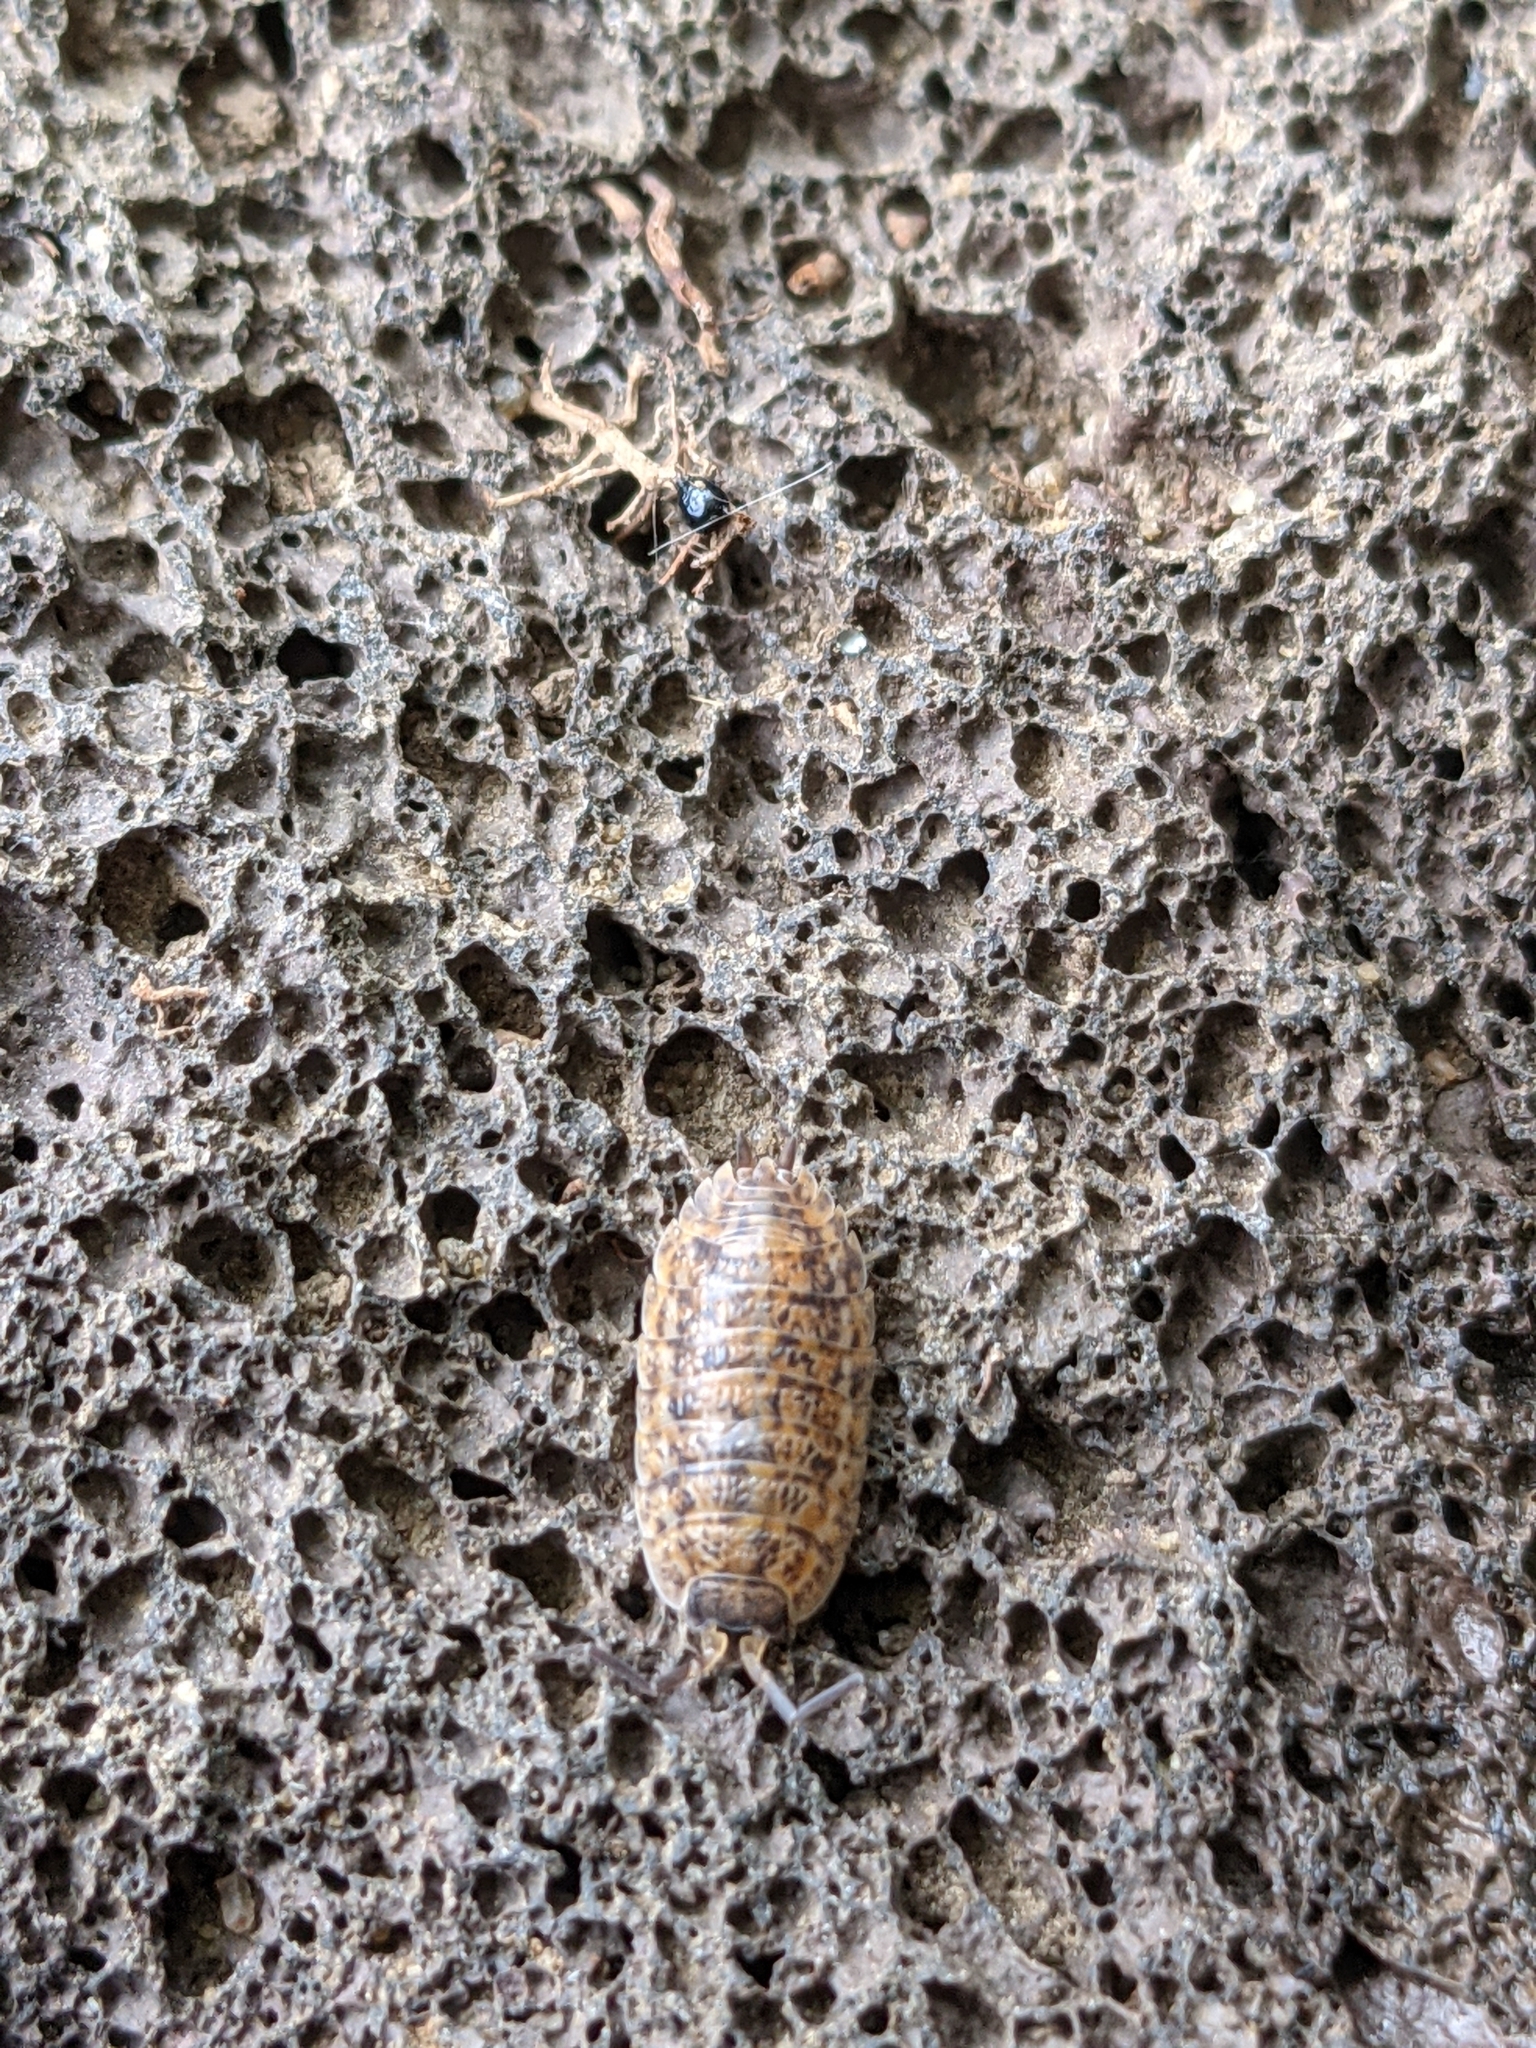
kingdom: Animalia
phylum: Arthropoda
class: Malacostraca
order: Isopoda
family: Trachelipodidae
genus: Trachelipus
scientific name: Trachelipus rathkii
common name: Isopod
